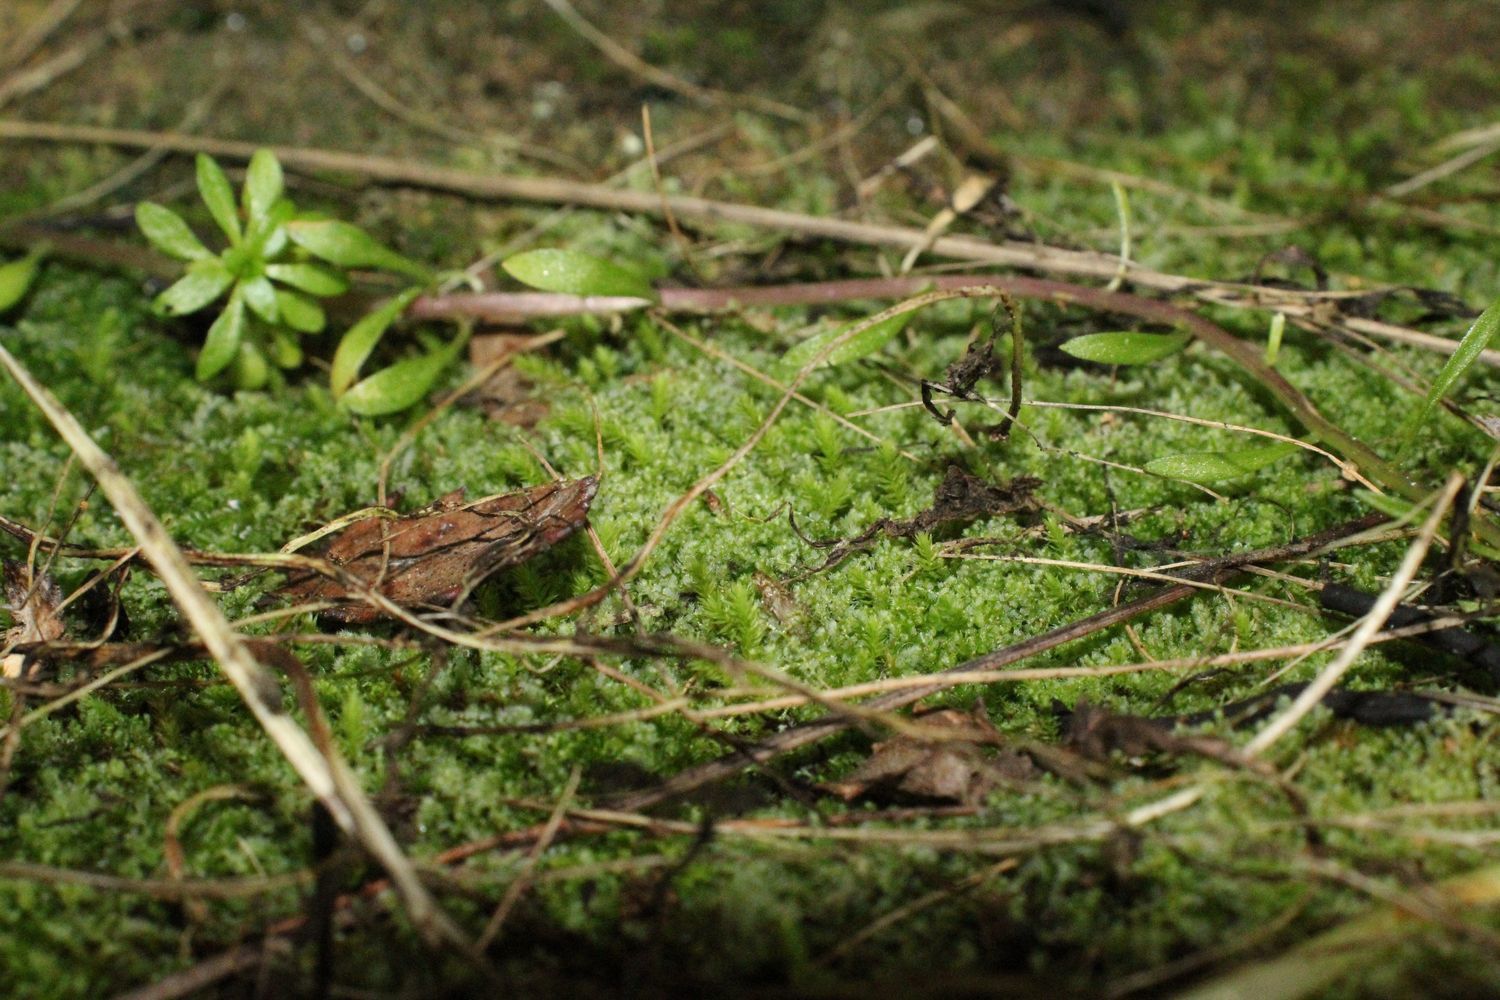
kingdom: Plantae
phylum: Marchantiophyta
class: Jungermanniopsida
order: Jungermanniales
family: Lepidoziaceae
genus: Ceramanus
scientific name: Ceramanus clatritexta
